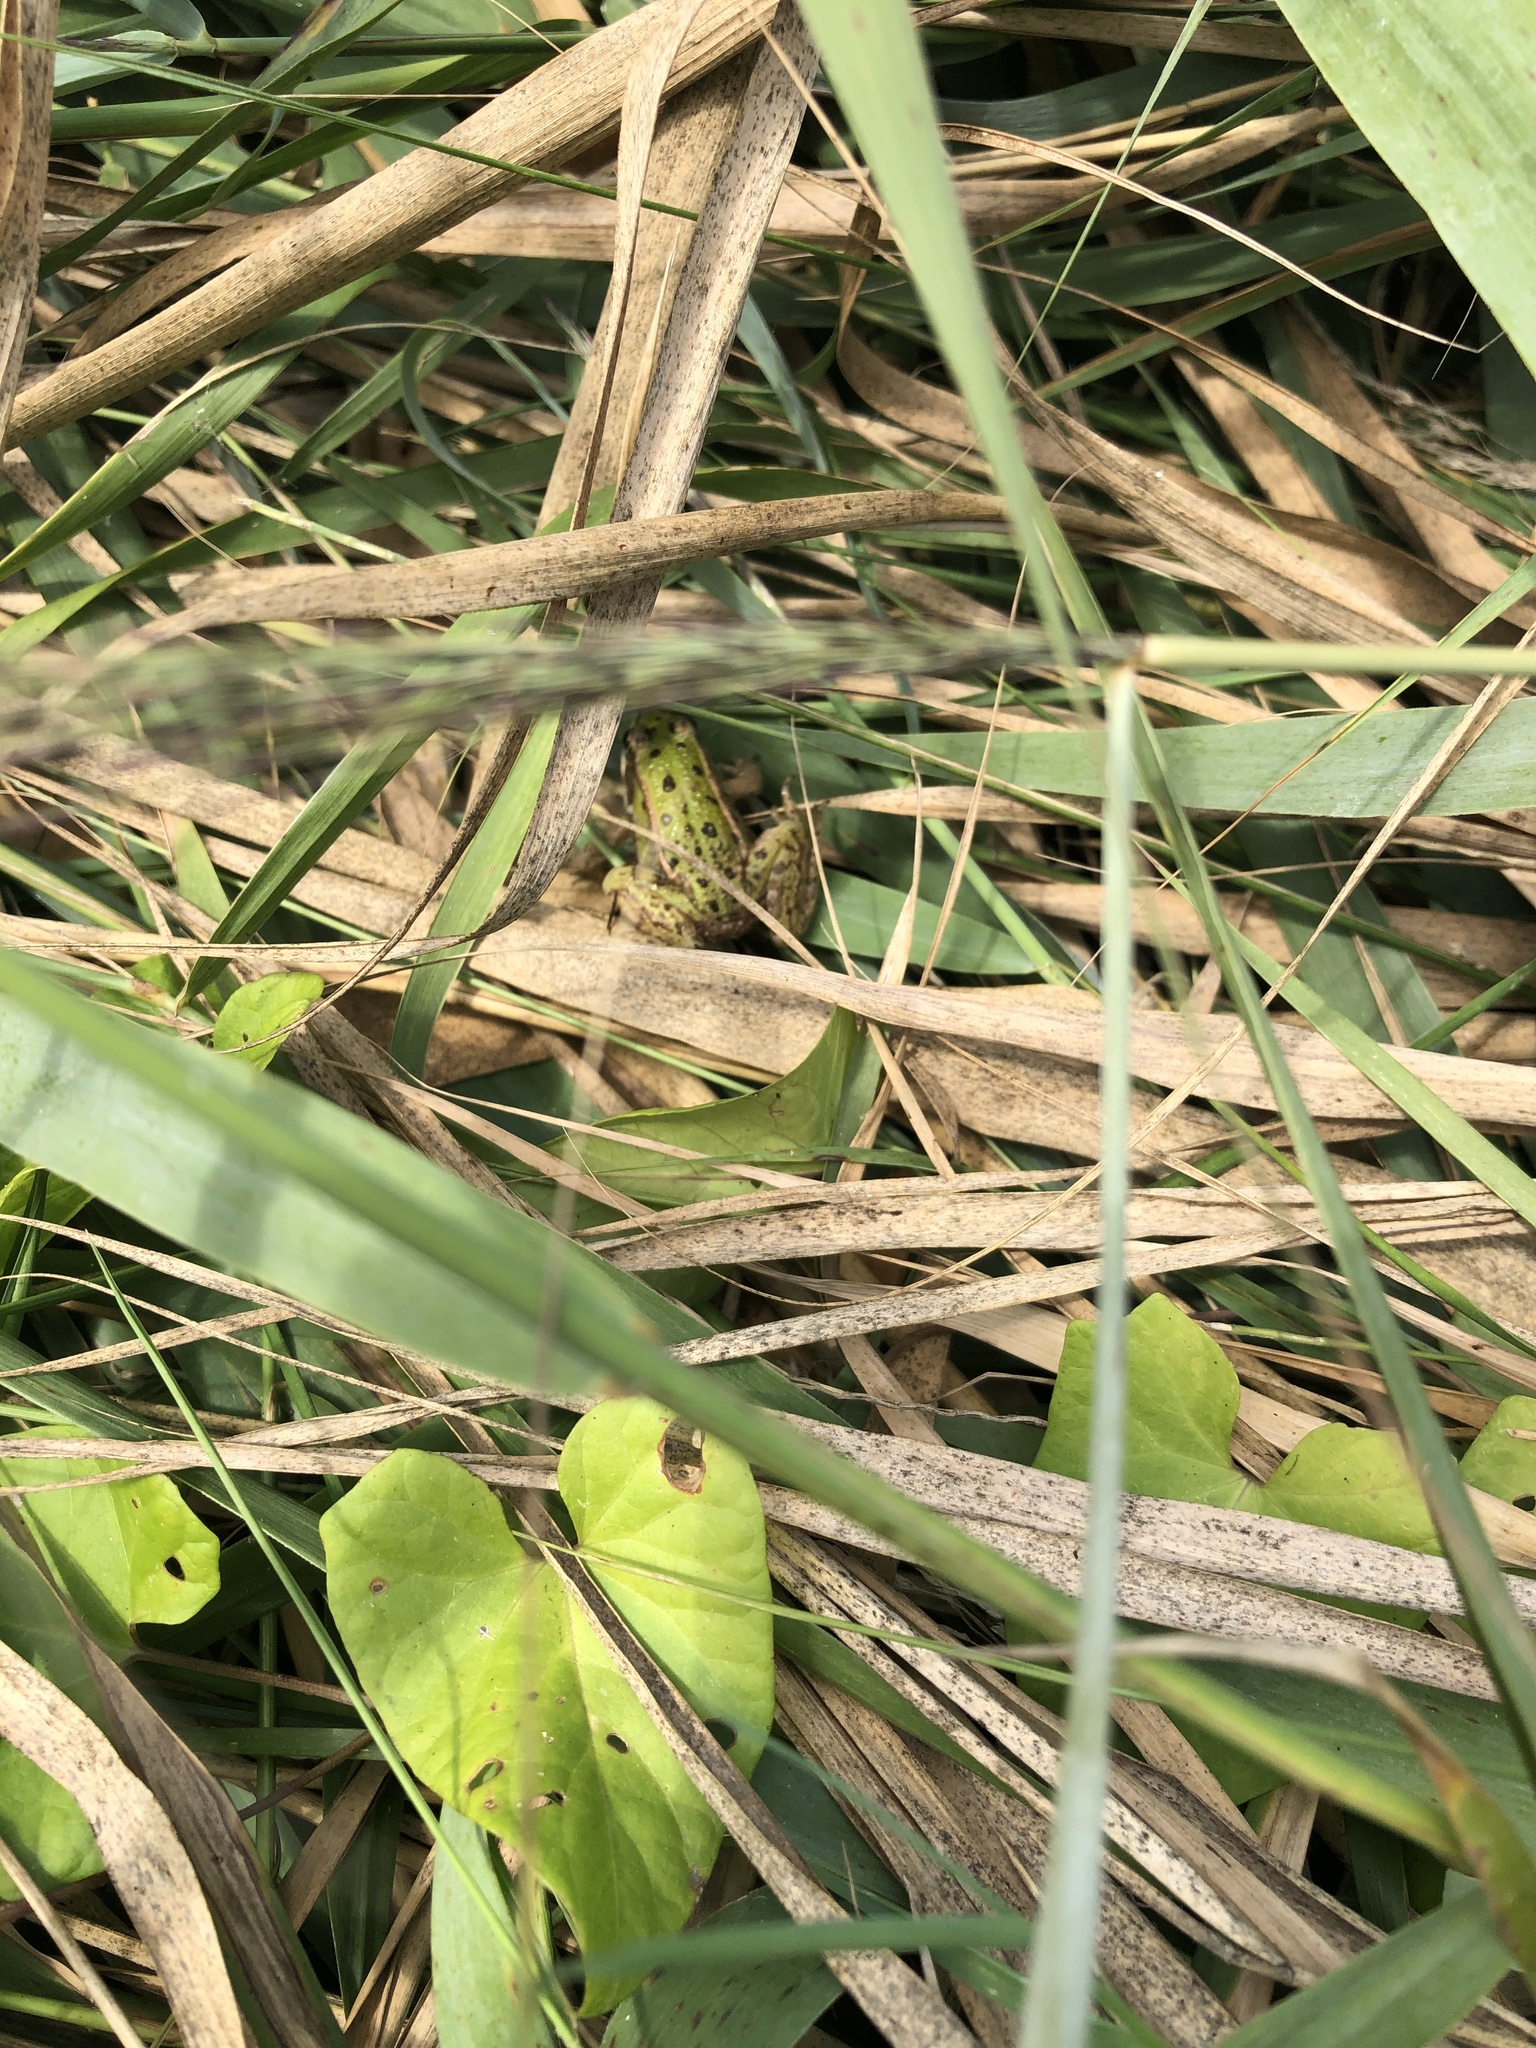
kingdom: Animalia
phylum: Chordata
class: Amphibia
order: Anura
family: Ranidae
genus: Pelophylax
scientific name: Pelophylax lessonae
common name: Pool frog
